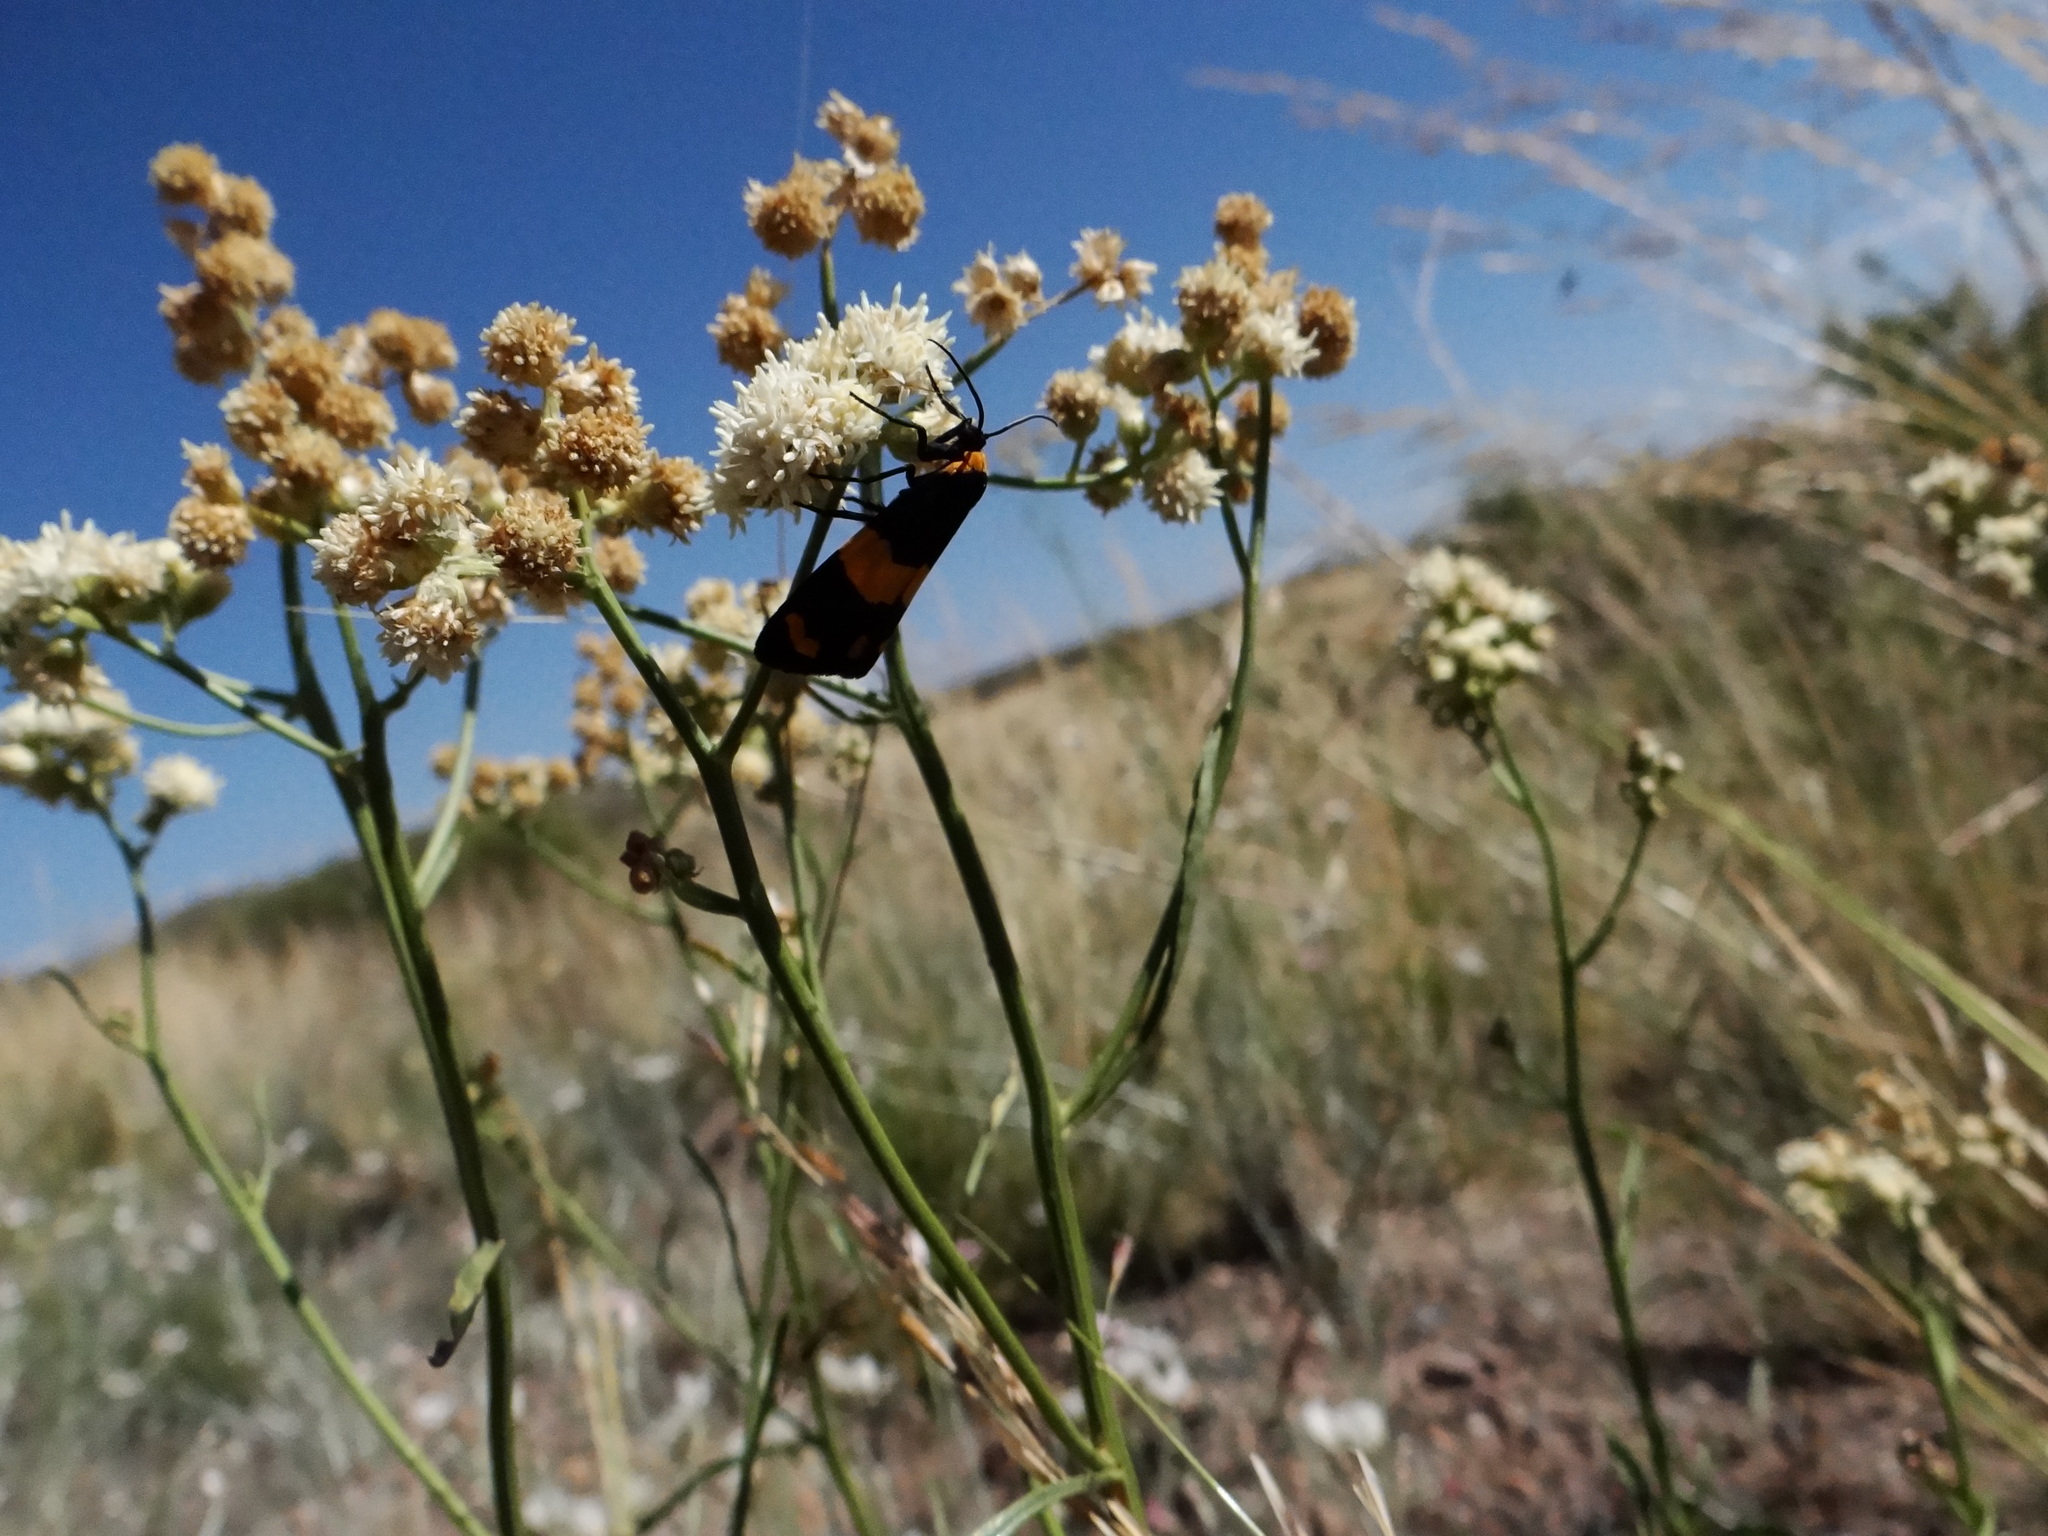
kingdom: Animalia
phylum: Arthropoda
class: Insecta
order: Lepidoptera
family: Erebidae
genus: Eudesmia
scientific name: Eudesmia
